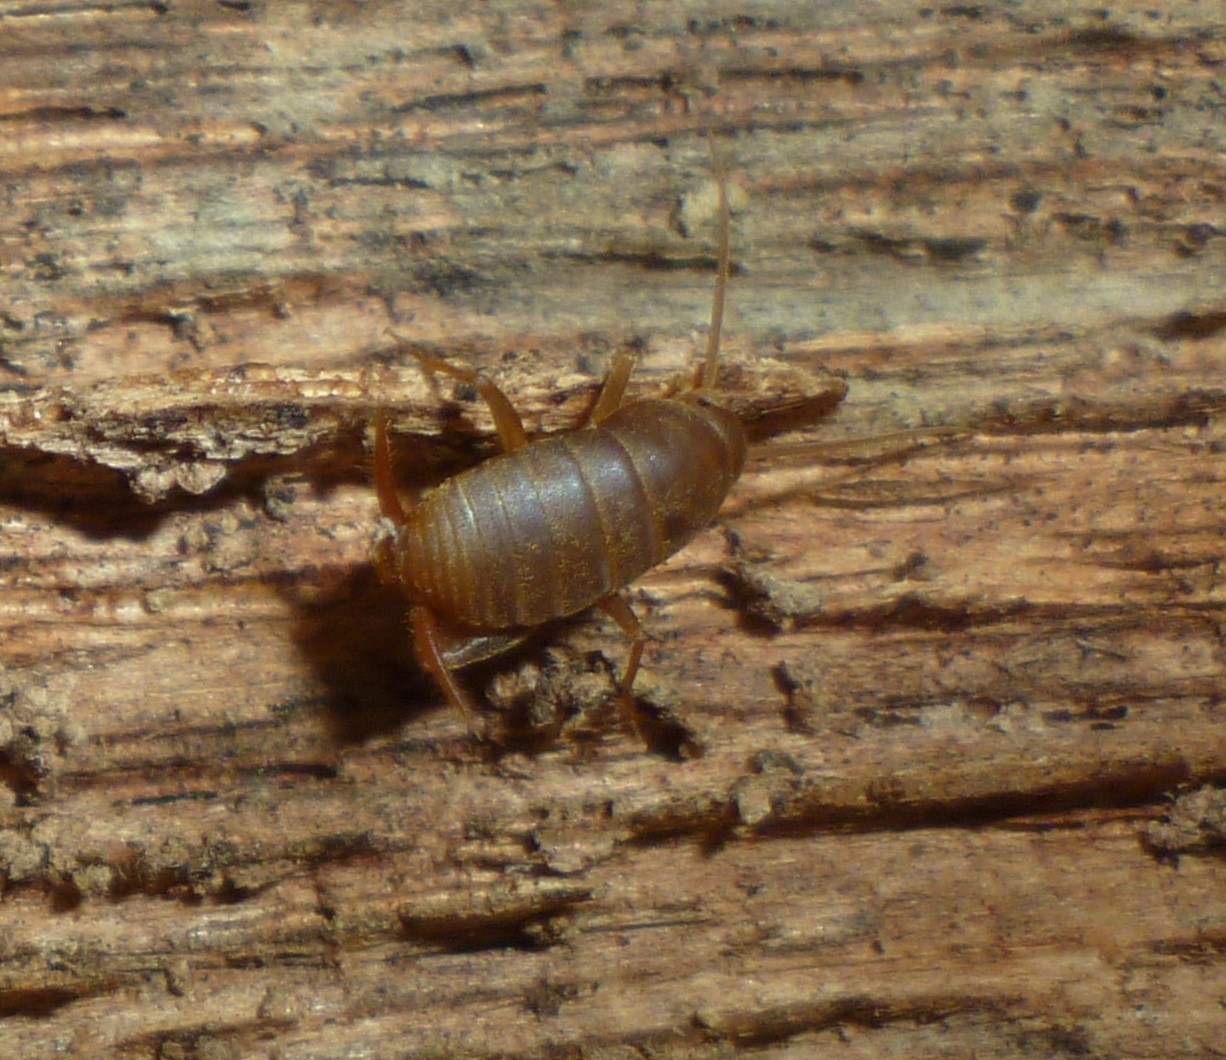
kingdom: Animalia
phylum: Arthropoda
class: Insecta
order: Orthoptera
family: Myrmecophilidae
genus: Myrmecophilus
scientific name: Myrmecophilus pergandei
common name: Eastern ant cricket
